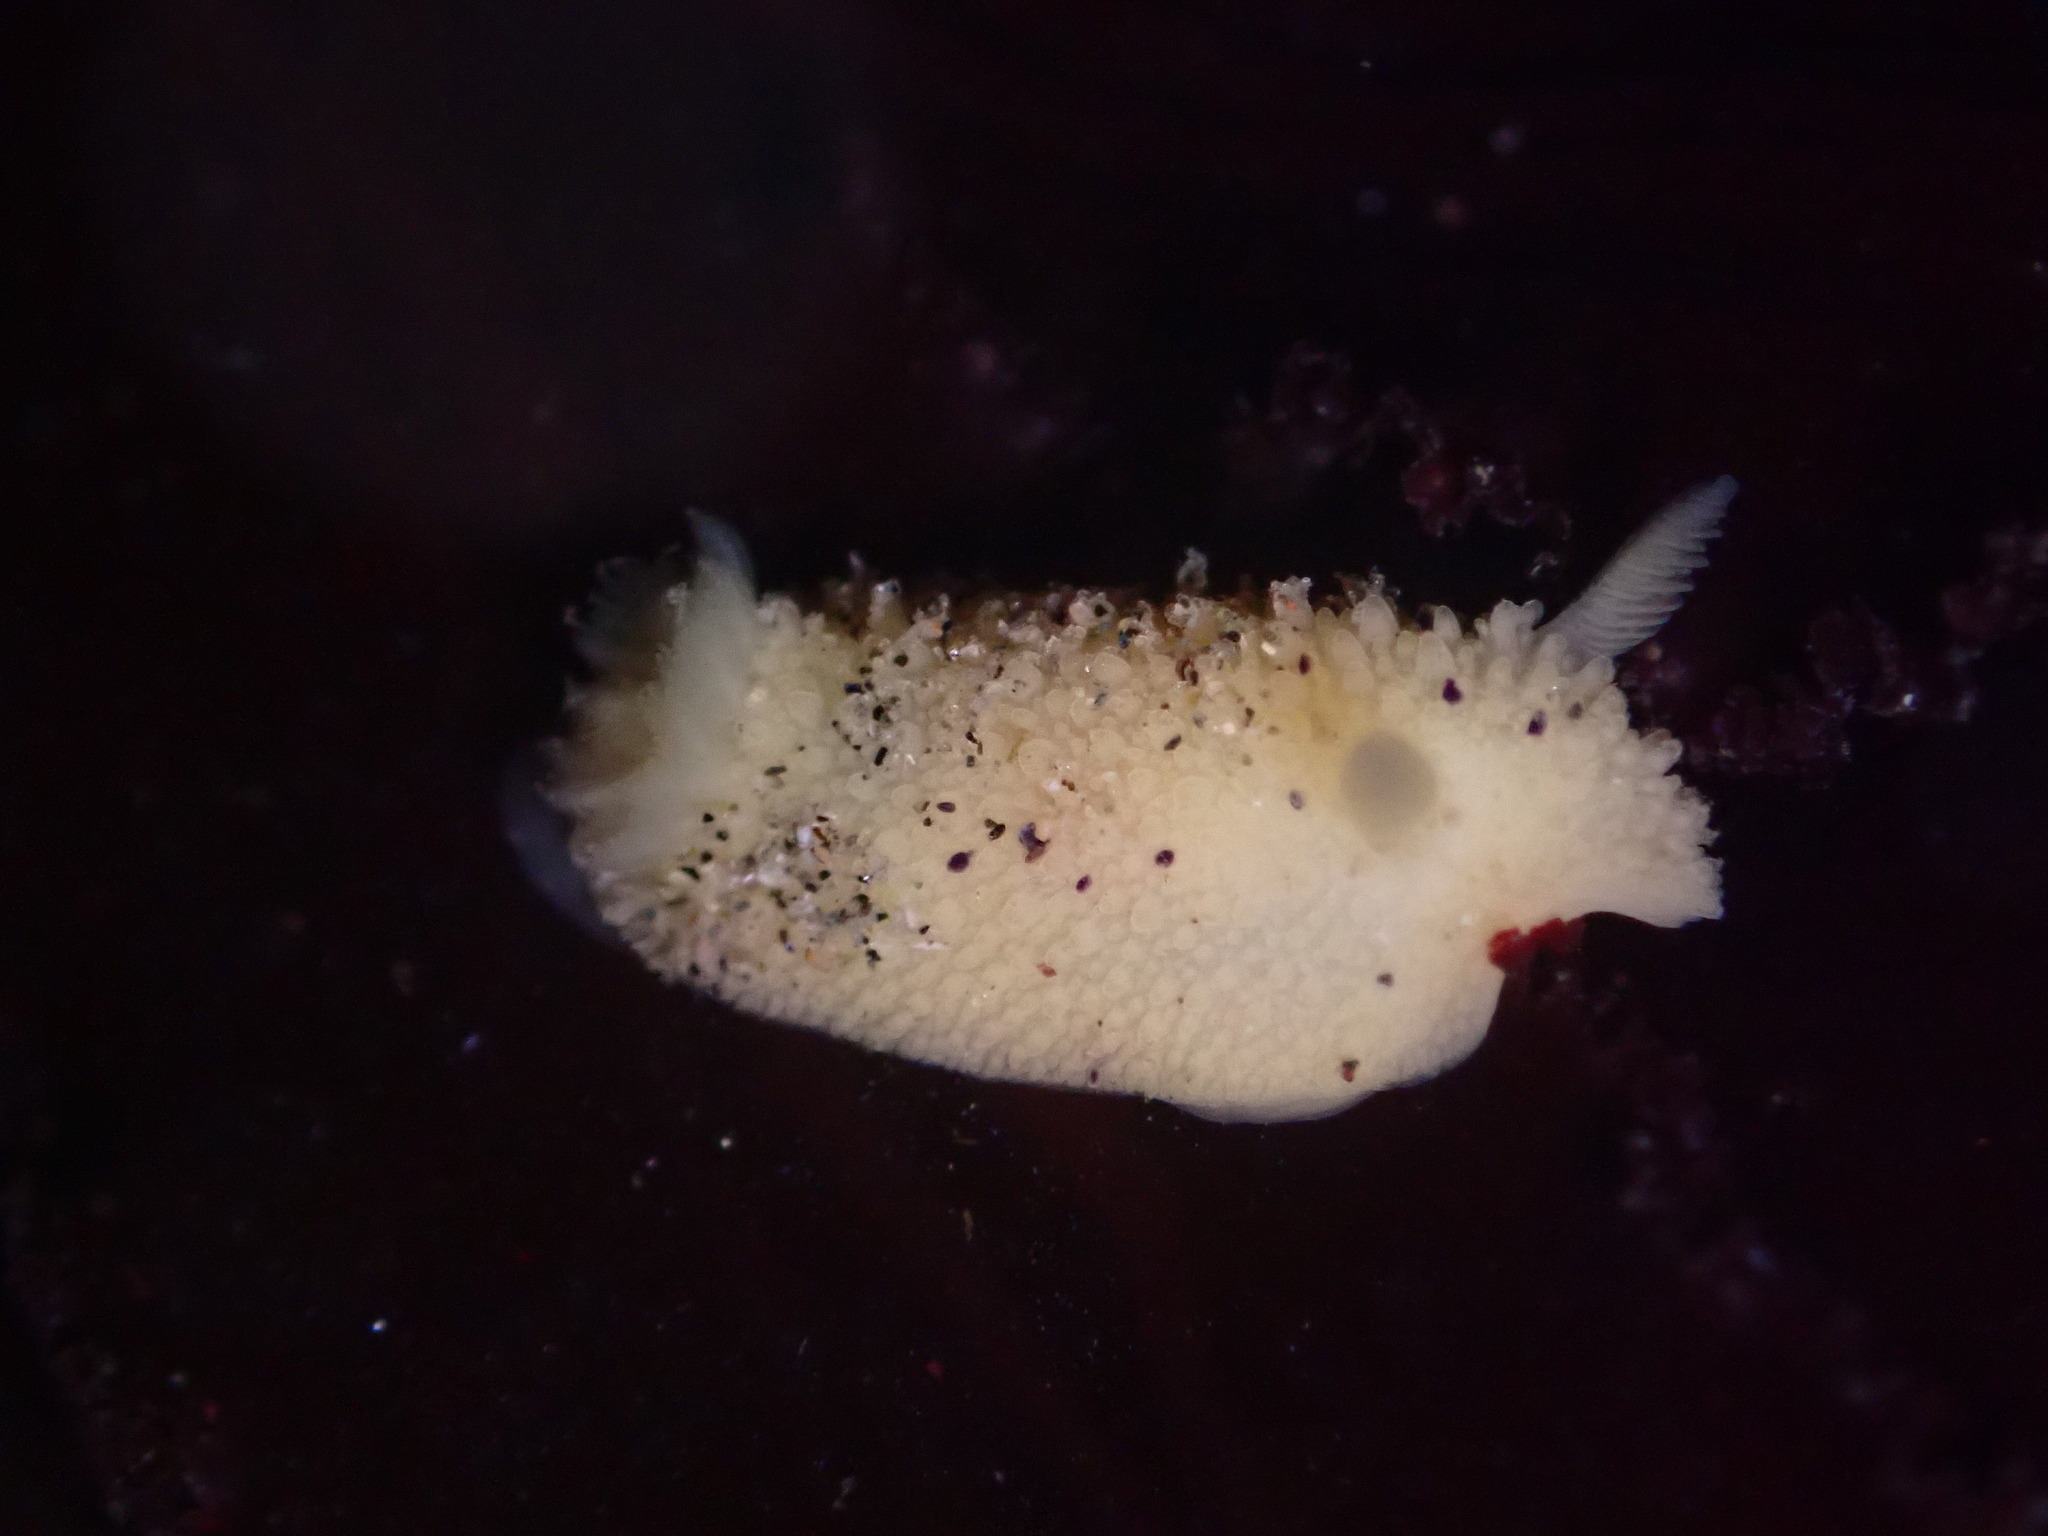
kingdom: Animalia
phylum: Mollusca
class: Gastropoda
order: Nudibranchia
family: Dorididae
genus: Doris
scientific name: Doris montereyensis
